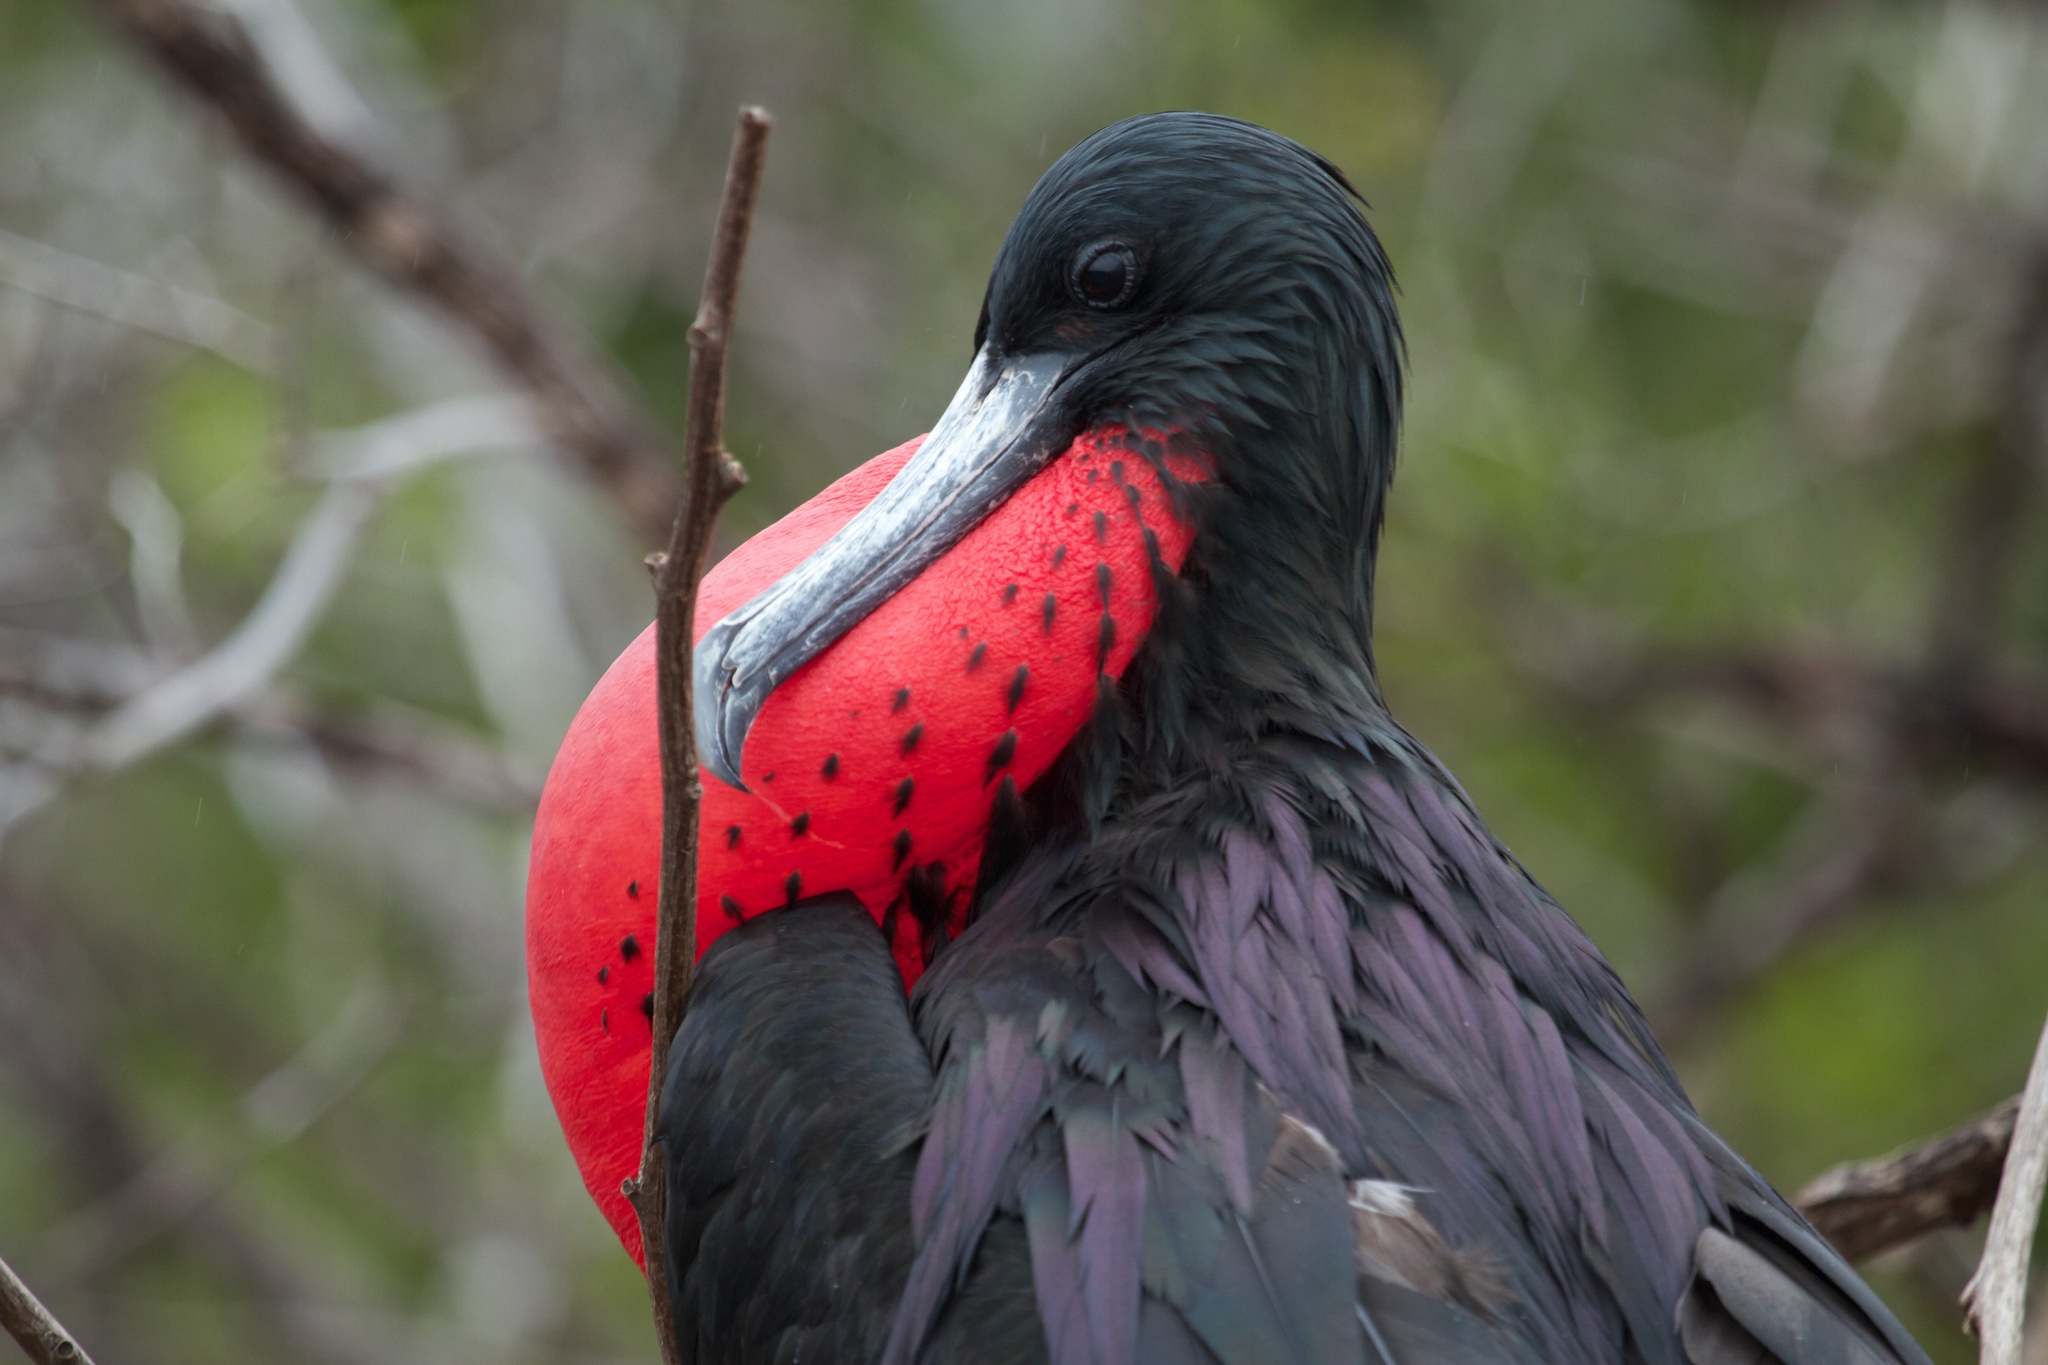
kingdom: Animalia
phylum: Chordata
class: Aves
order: Suliformes
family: Fregatidae
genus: Fregata
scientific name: Fregata magnificens
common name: Magnificent frigatebird
